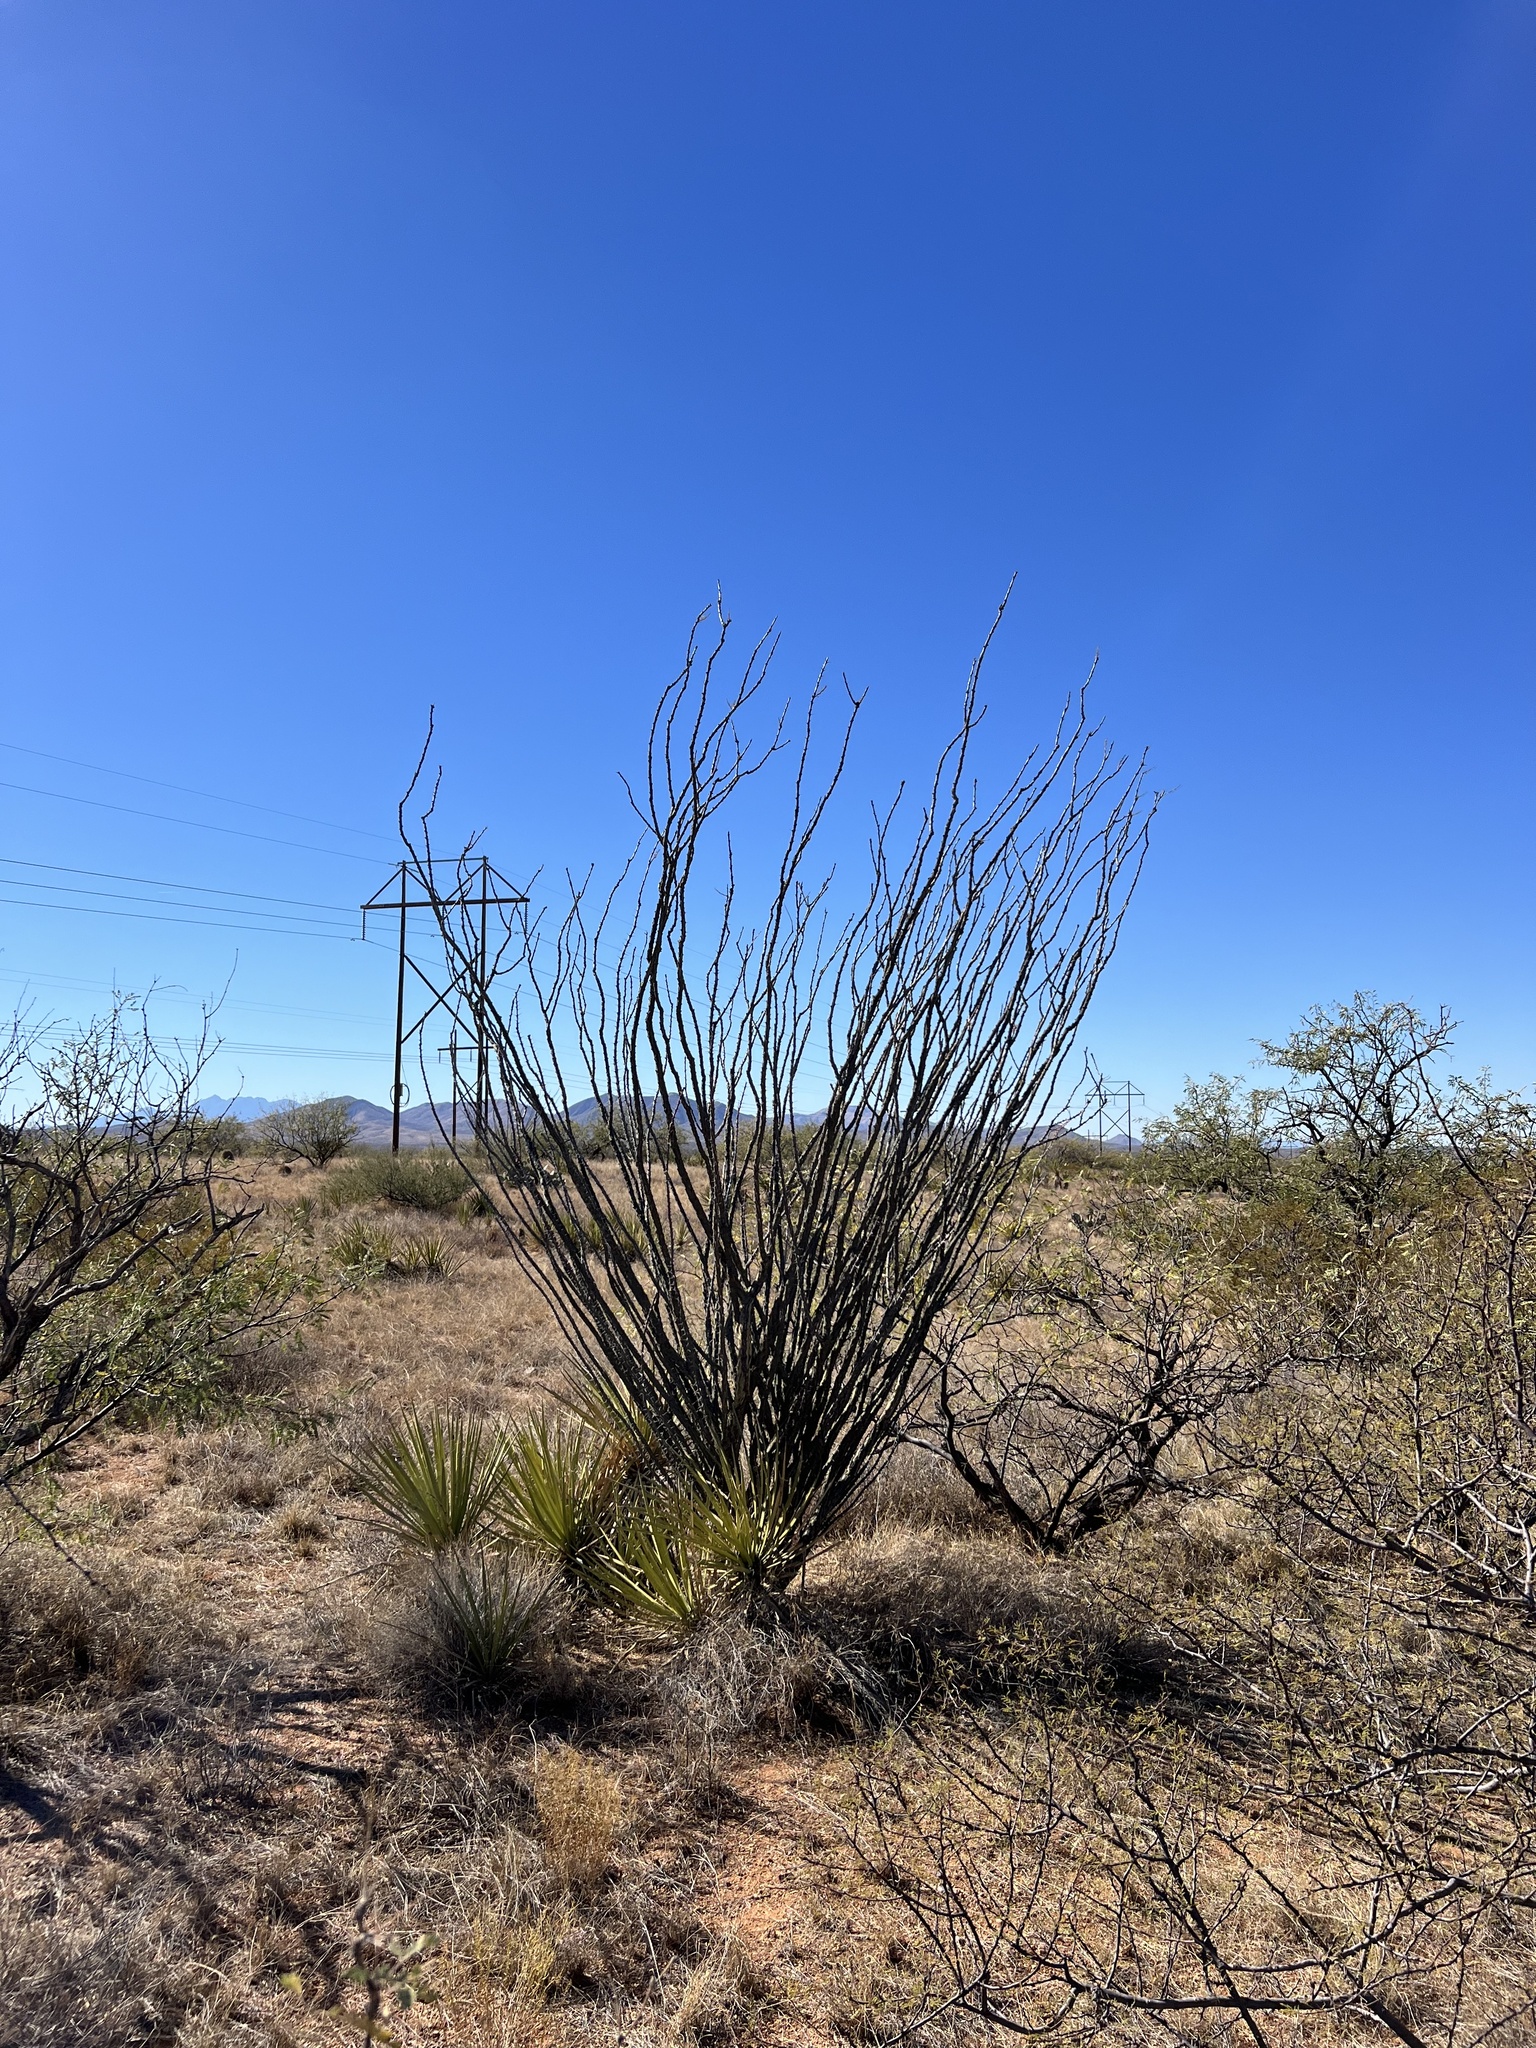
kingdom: Plantae
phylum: Tracheophyta
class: Magnoliopsida
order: Ericales
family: Fouquieriaceae
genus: Fouquieria
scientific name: Fouquieria splendens
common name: Vine-cactus
